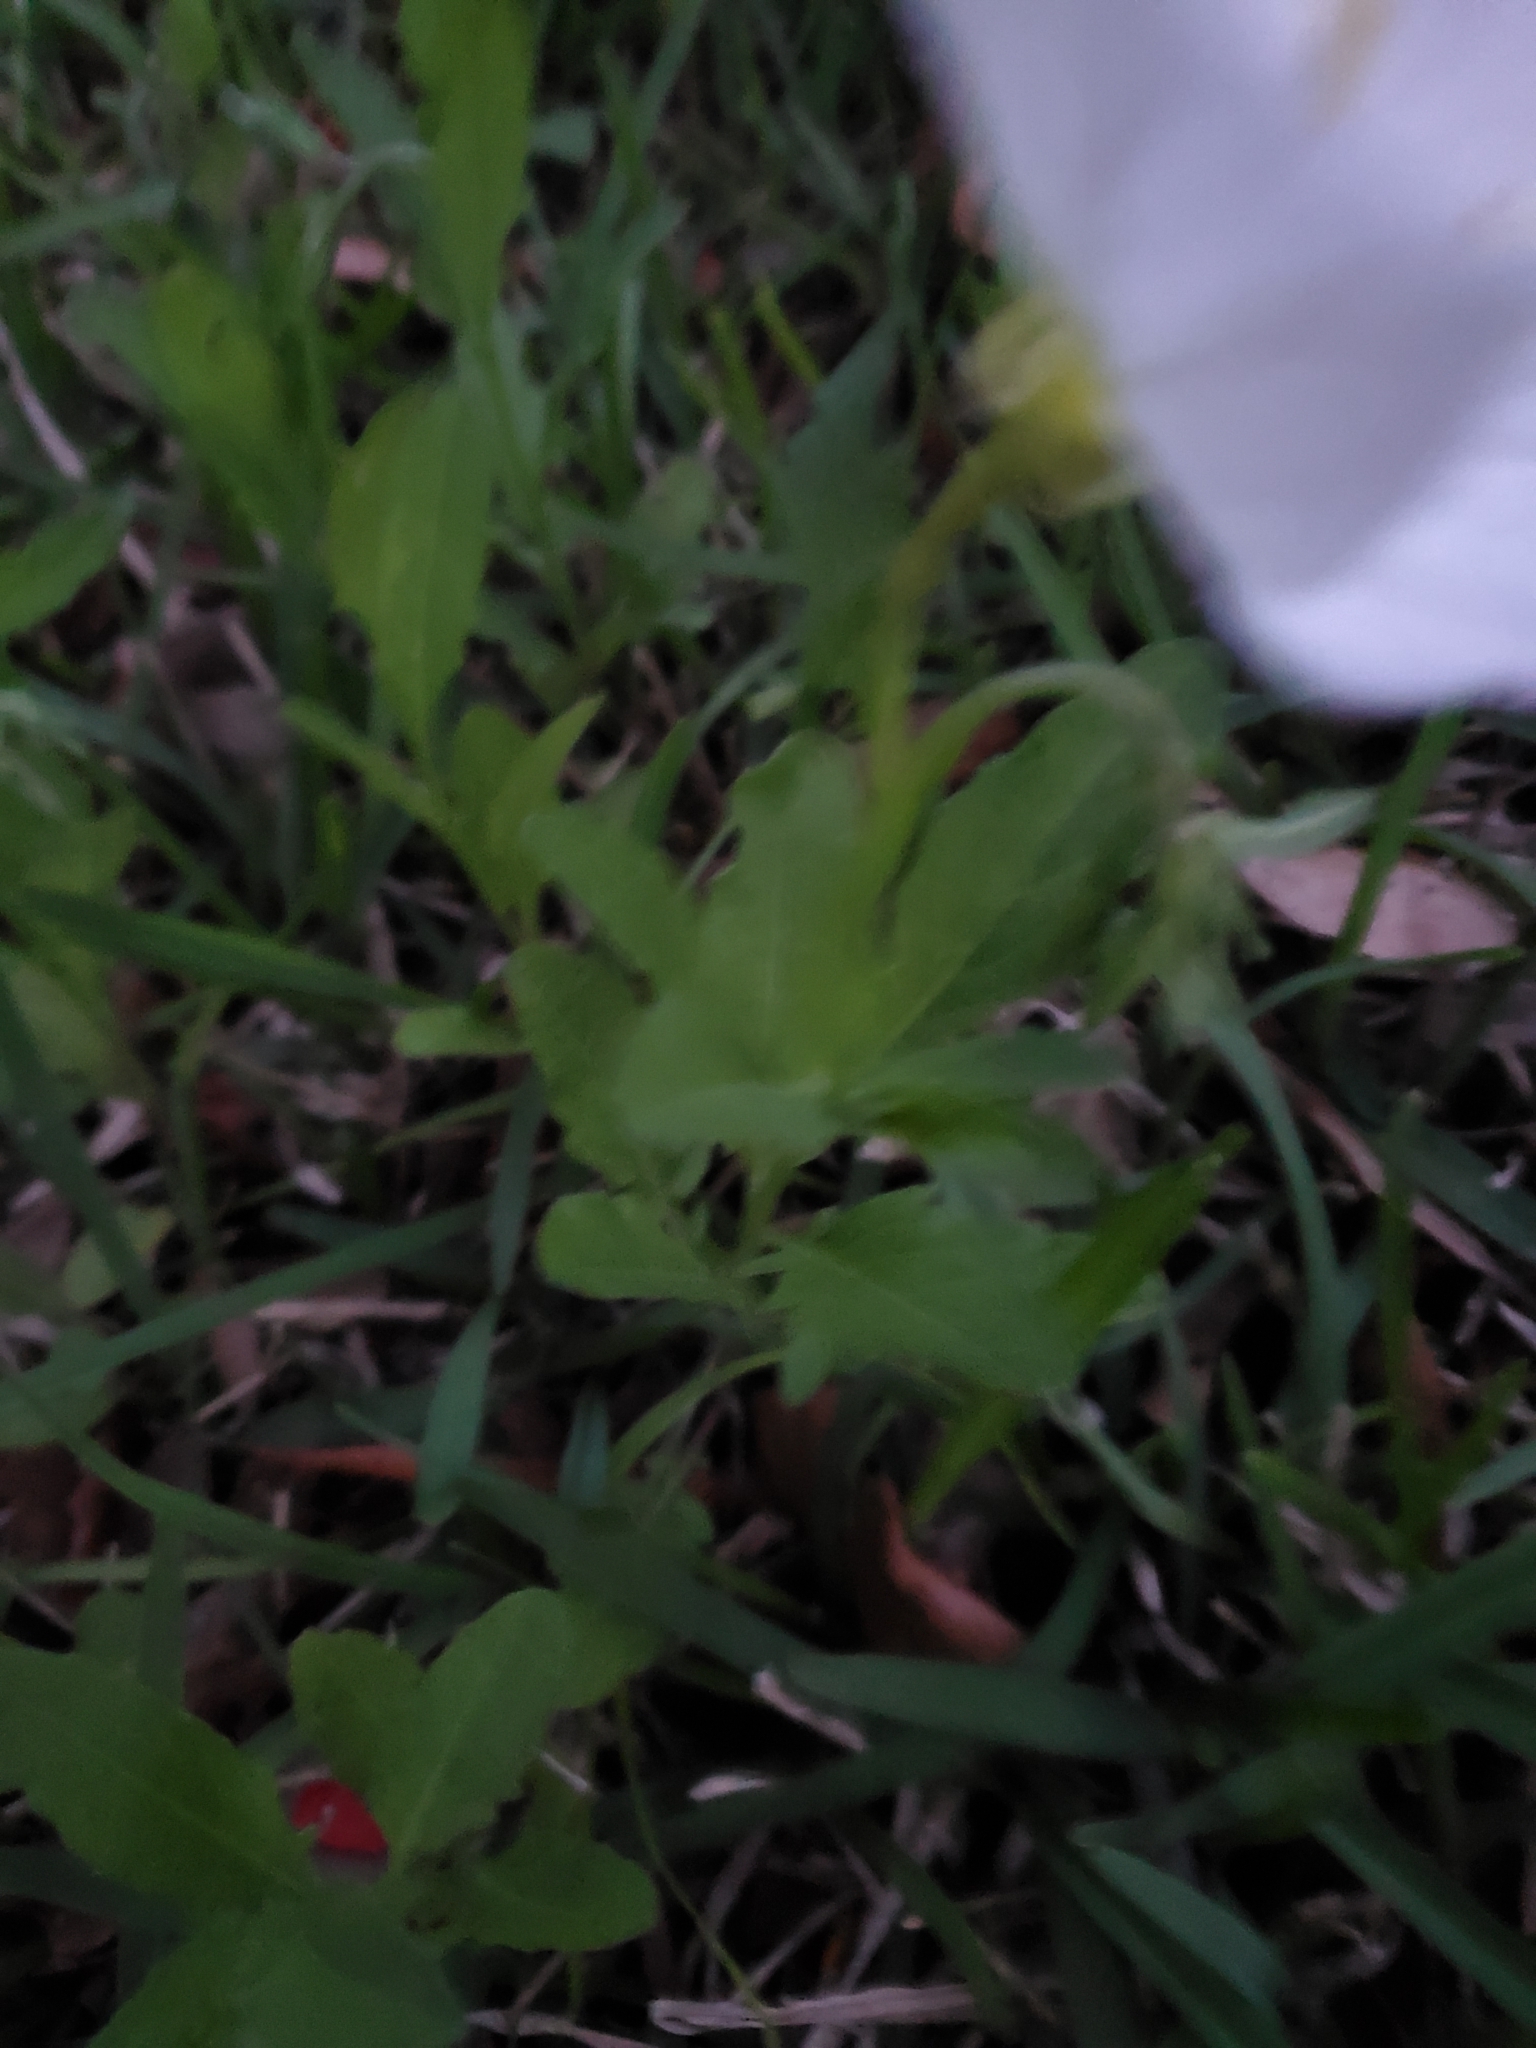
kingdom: Plantae
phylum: Tracheophyta
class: Magnoliopsida
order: Myrtales
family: Onagraceae
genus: Oenothera
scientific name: Oenothera speciosa
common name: White evening-primrose
